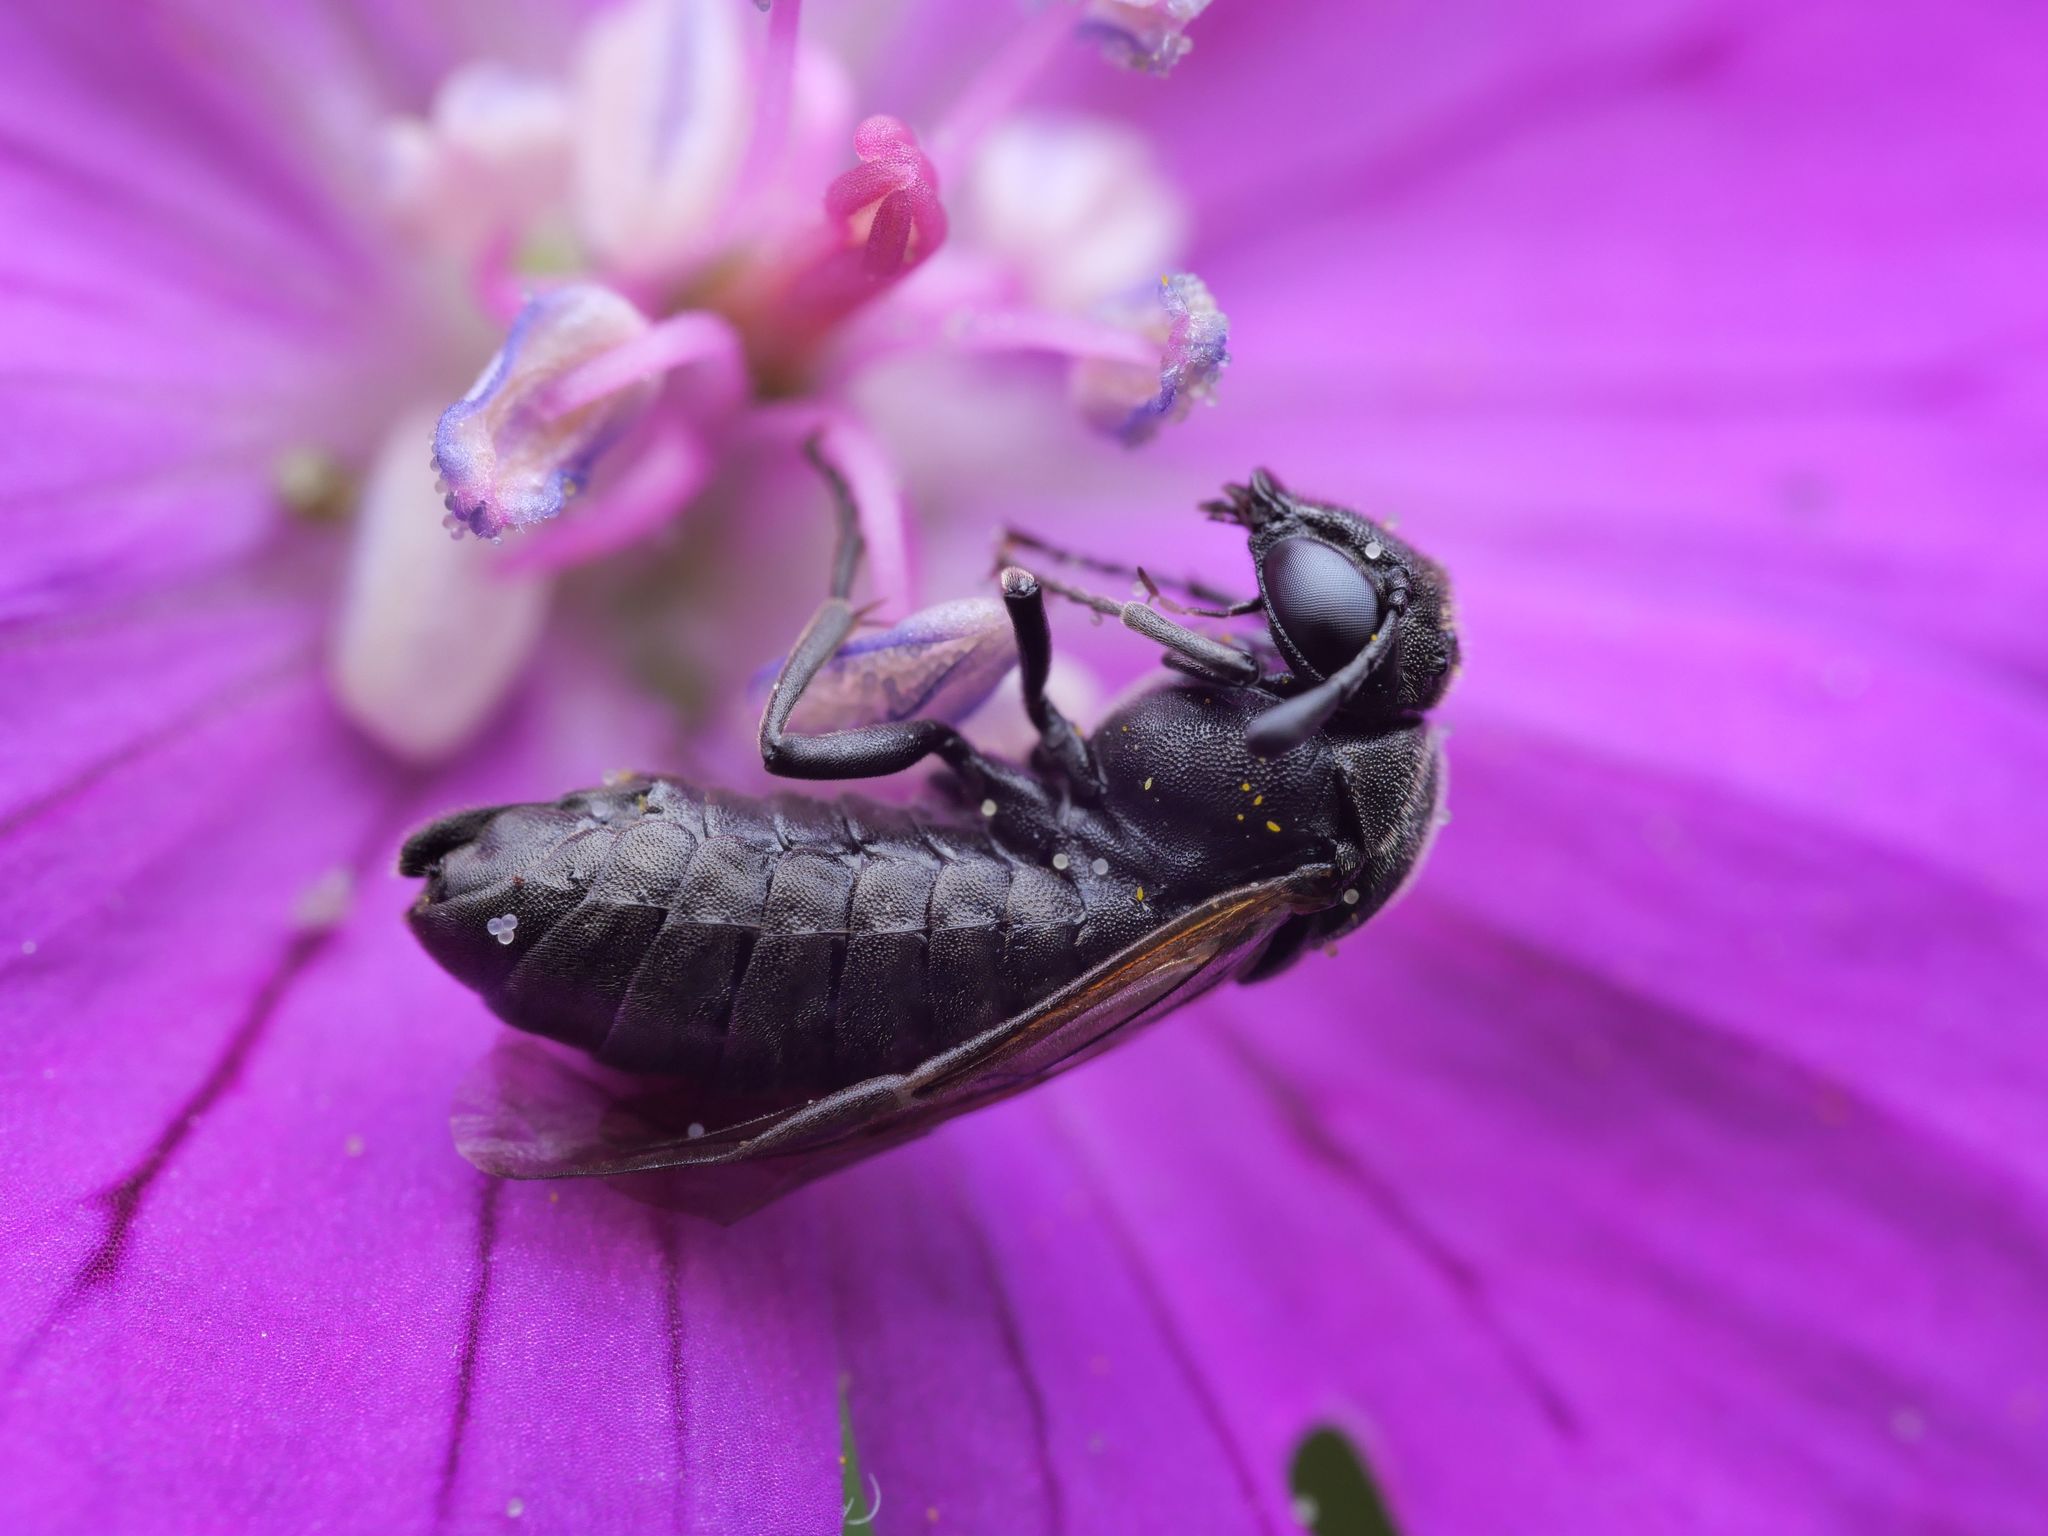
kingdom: Animalia
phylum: Arthropoda
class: Insecta
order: Hymenoptera
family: Cimbicidae
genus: Corynis
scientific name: Corynis obscura
